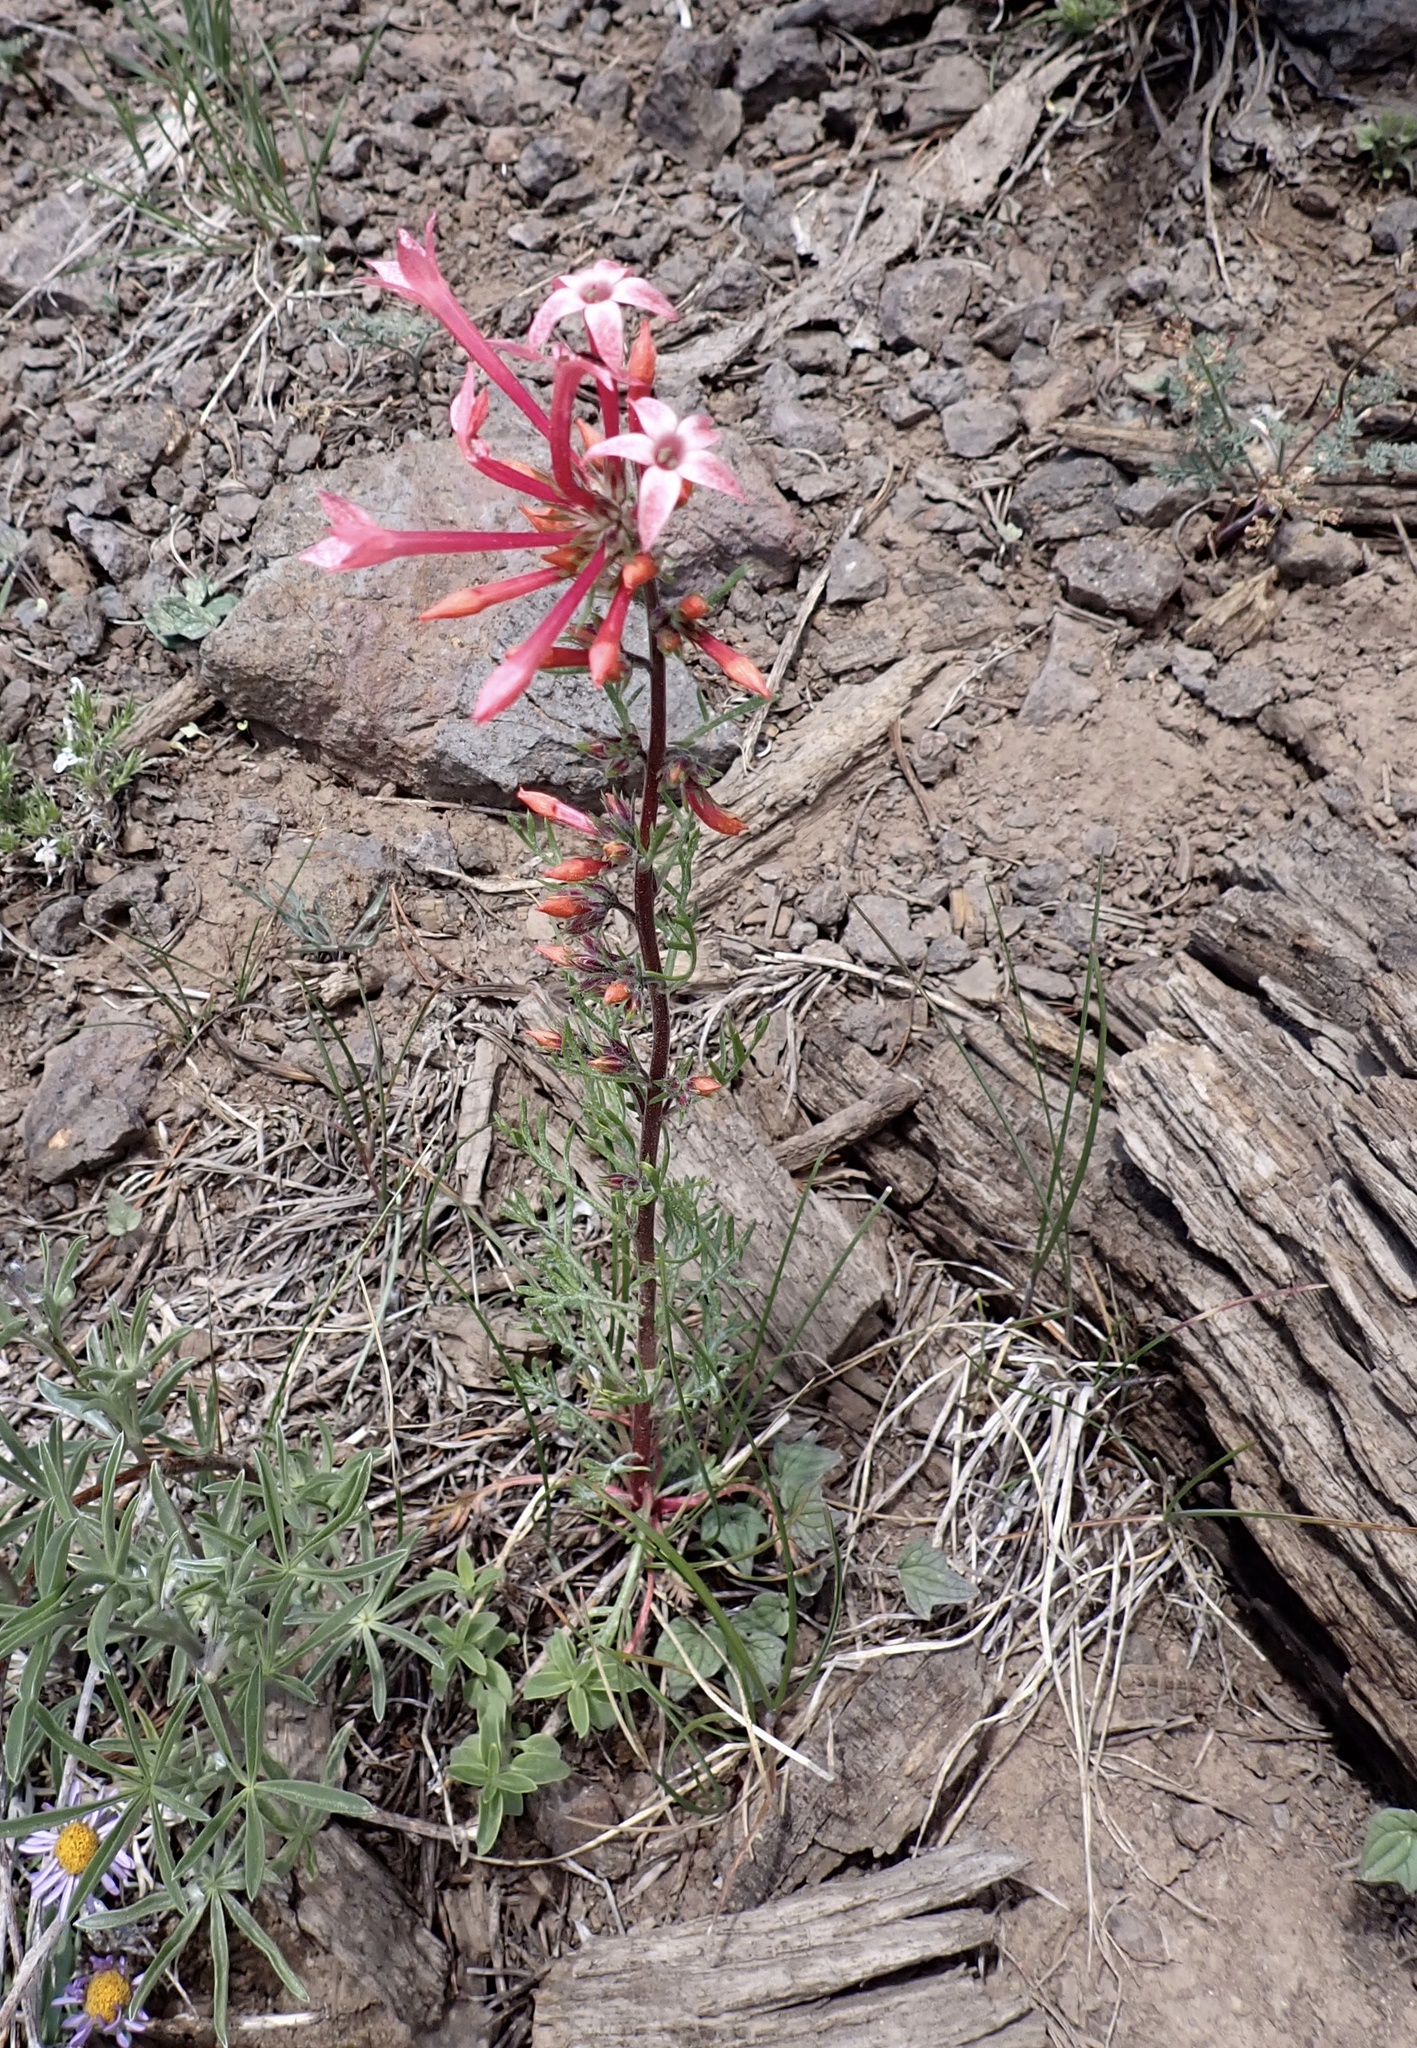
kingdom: Plantae
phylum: Tracheophyta
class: Magnoliopsida
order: Ericales
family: Polemoniaceae
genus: Ipomopsis
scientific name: Ipomopsis tenuituba
